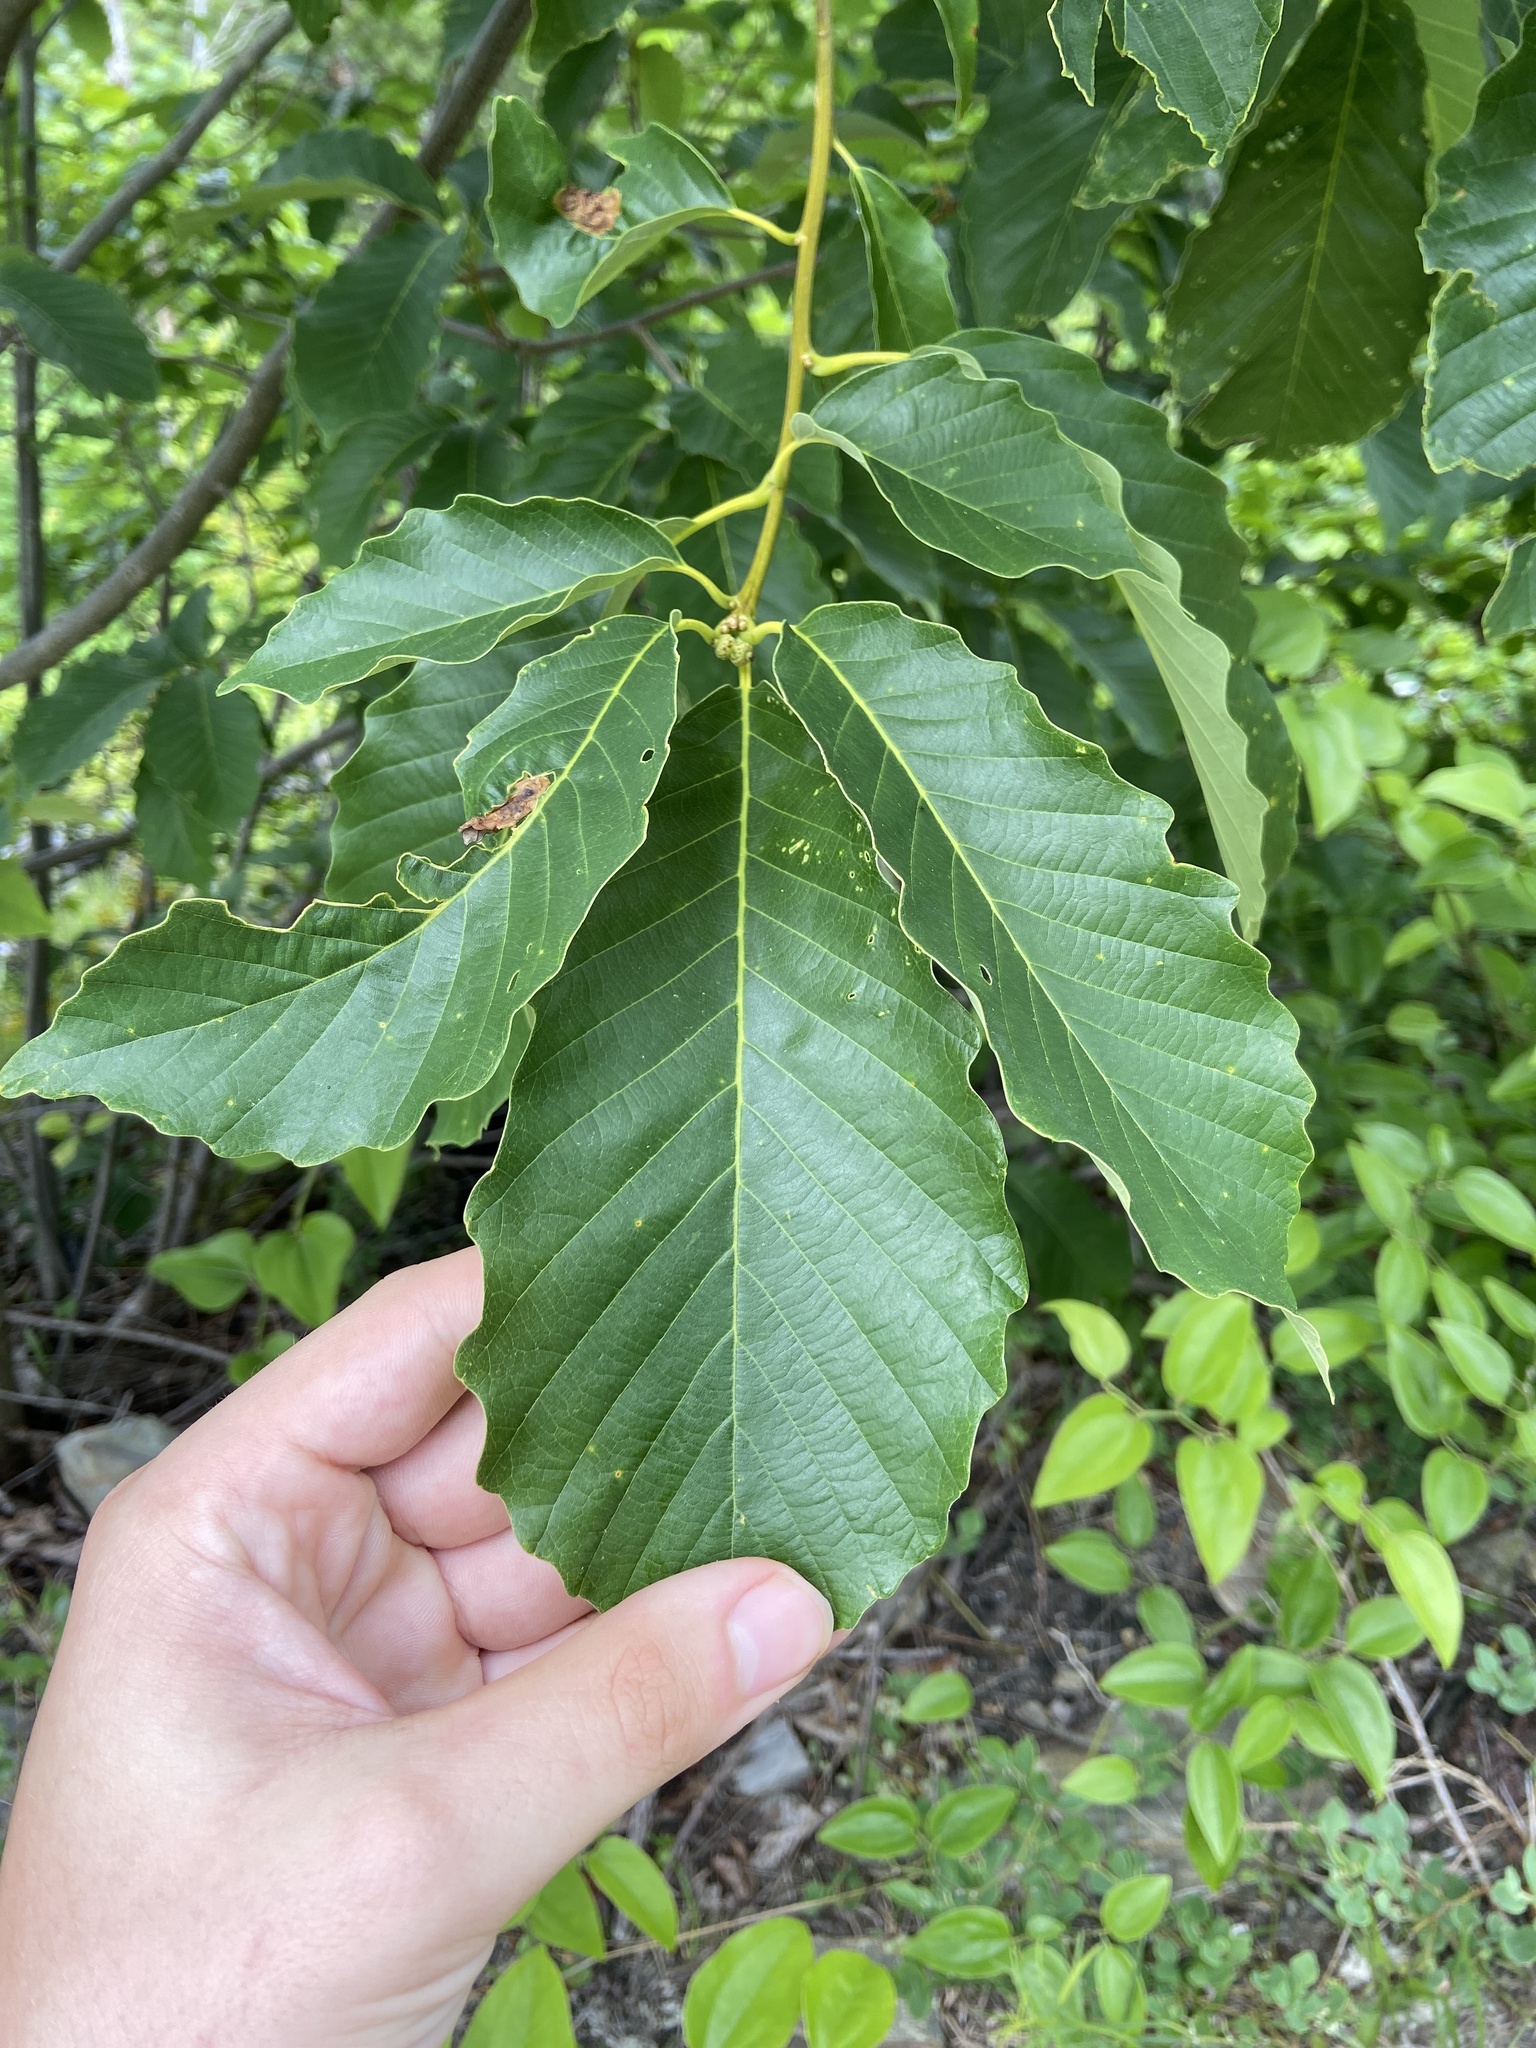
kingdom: Plantae
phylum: Tracheophyta
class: Magnoliopsida
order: Fagales
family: Fagaceae
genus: Quercus
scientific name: Quercus montana
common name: Chestnut oak
